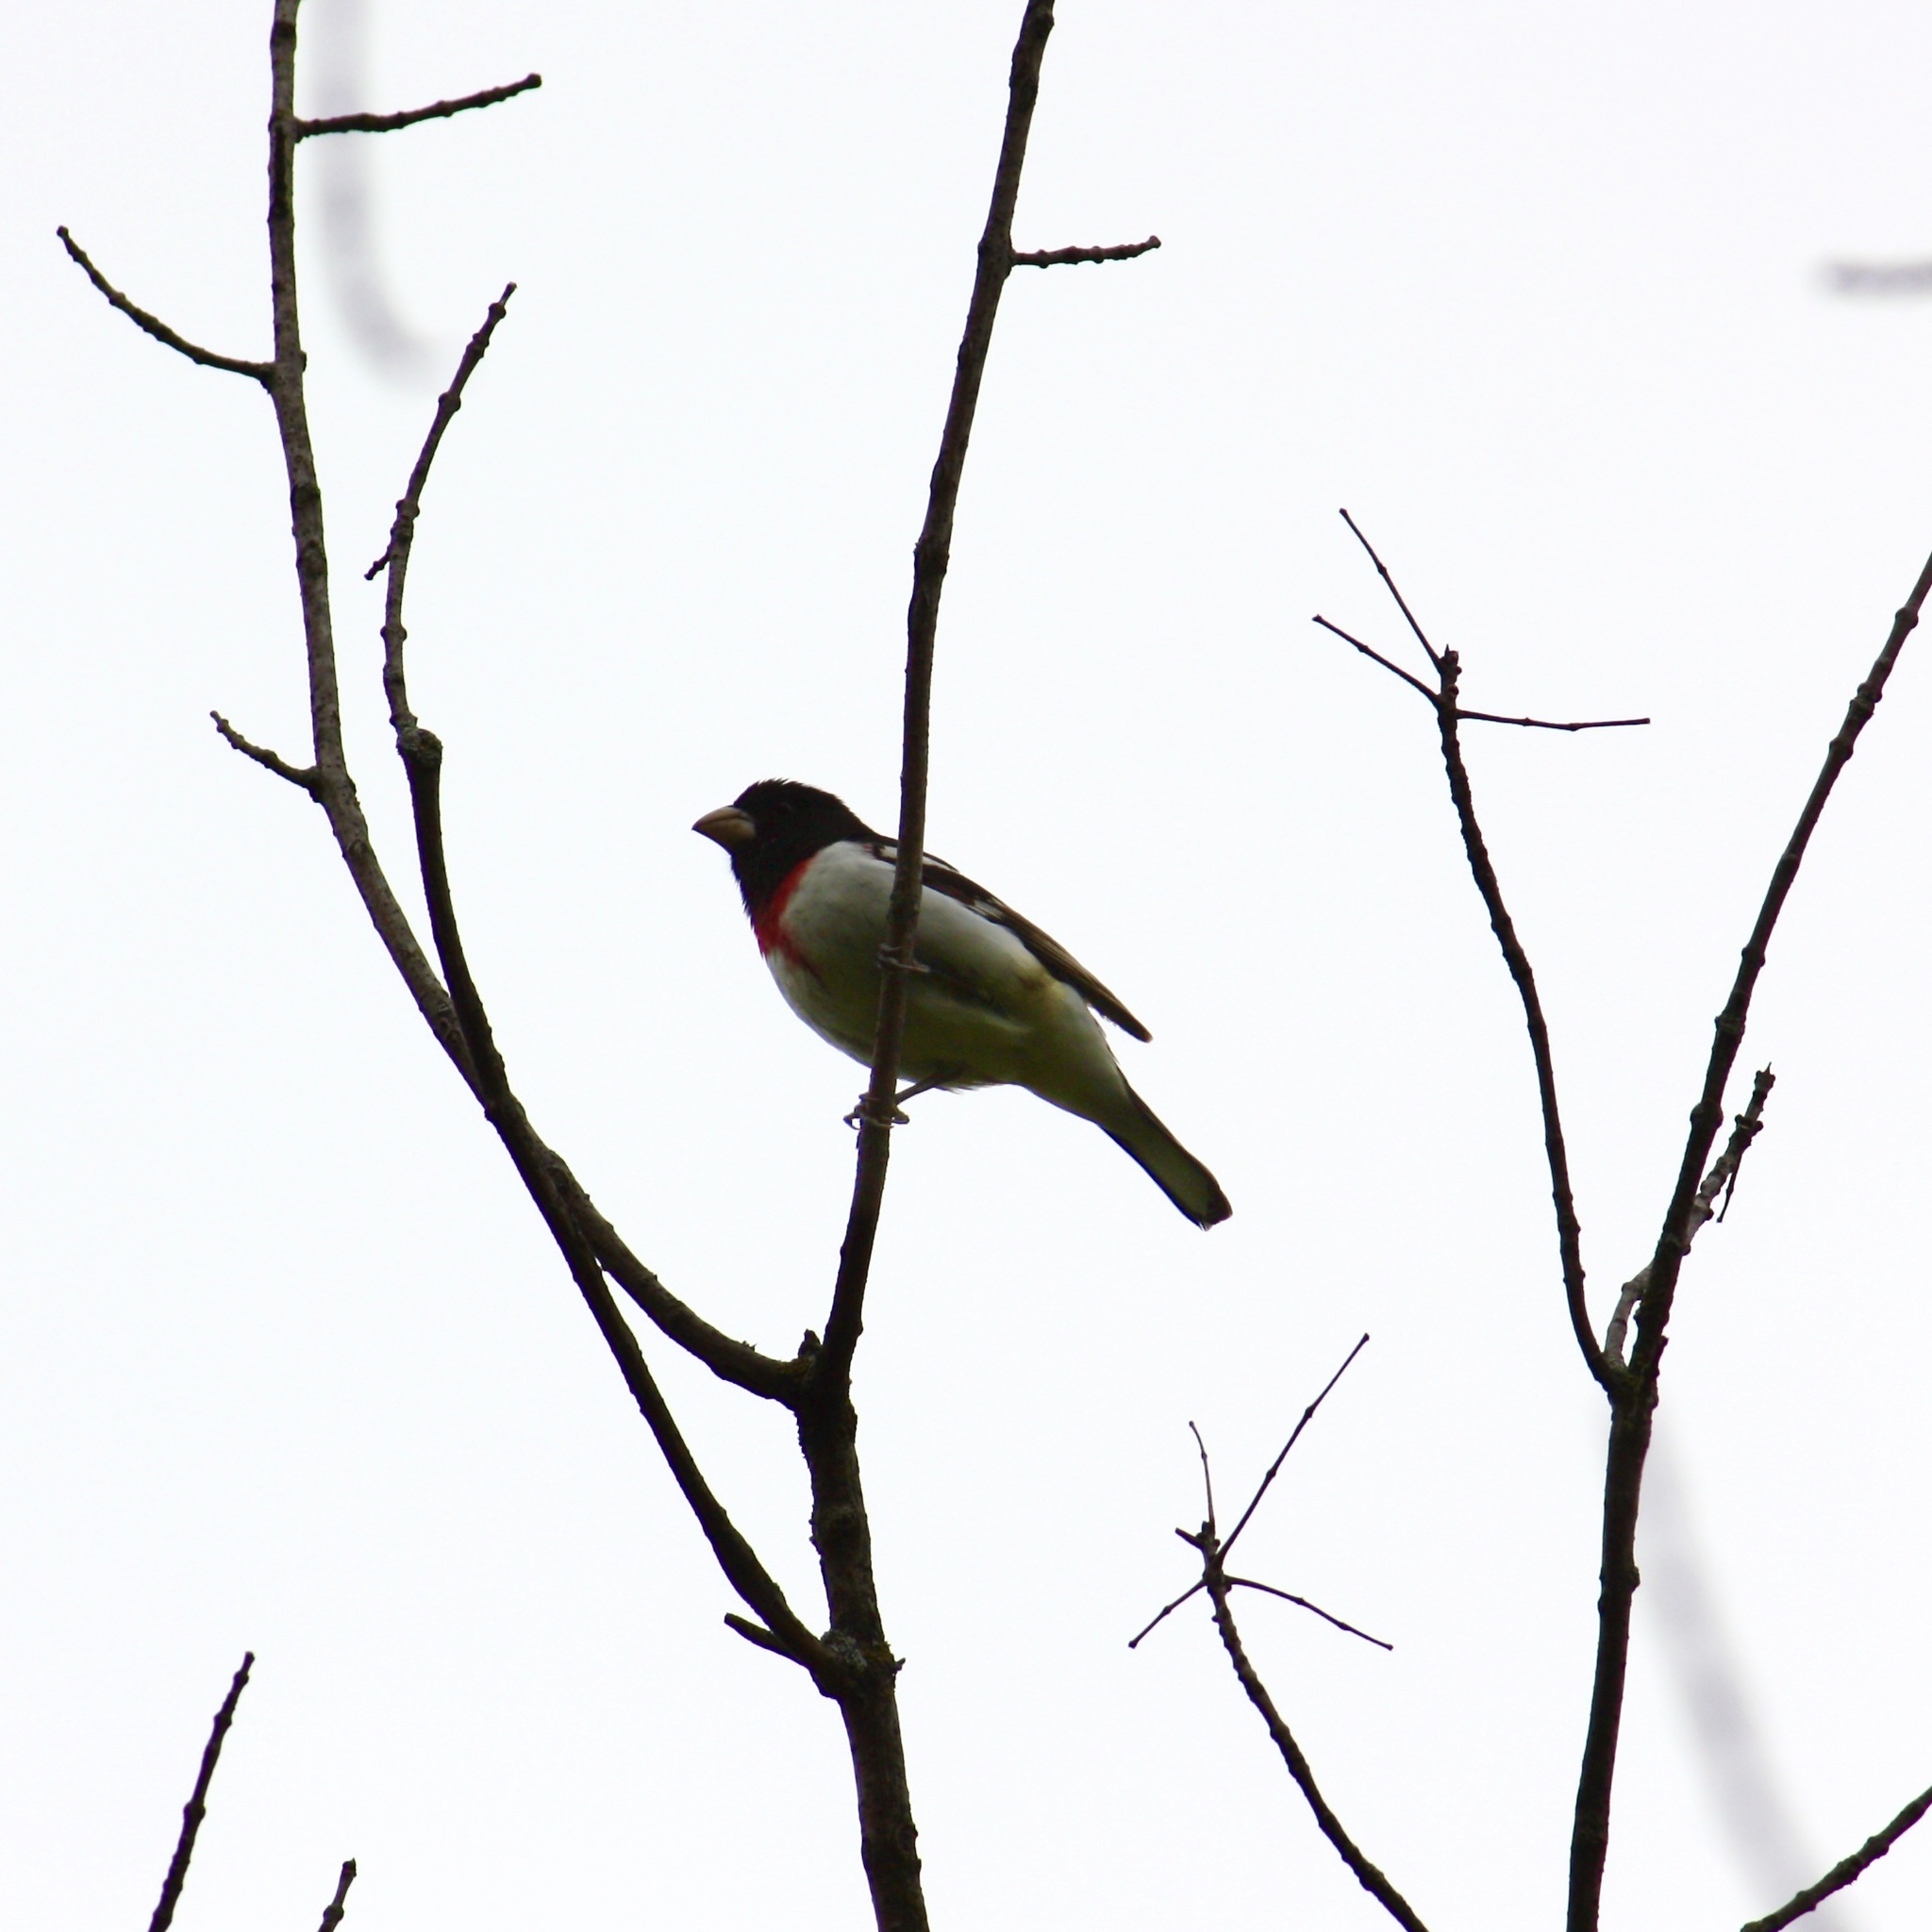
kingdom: Animalia
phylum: Chordata
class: Aves
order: Passeriformes
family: Cardinalidae
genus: Pheucticus
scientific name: Pheucticus ludovicianus
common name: Rose-breasted grosbeak
